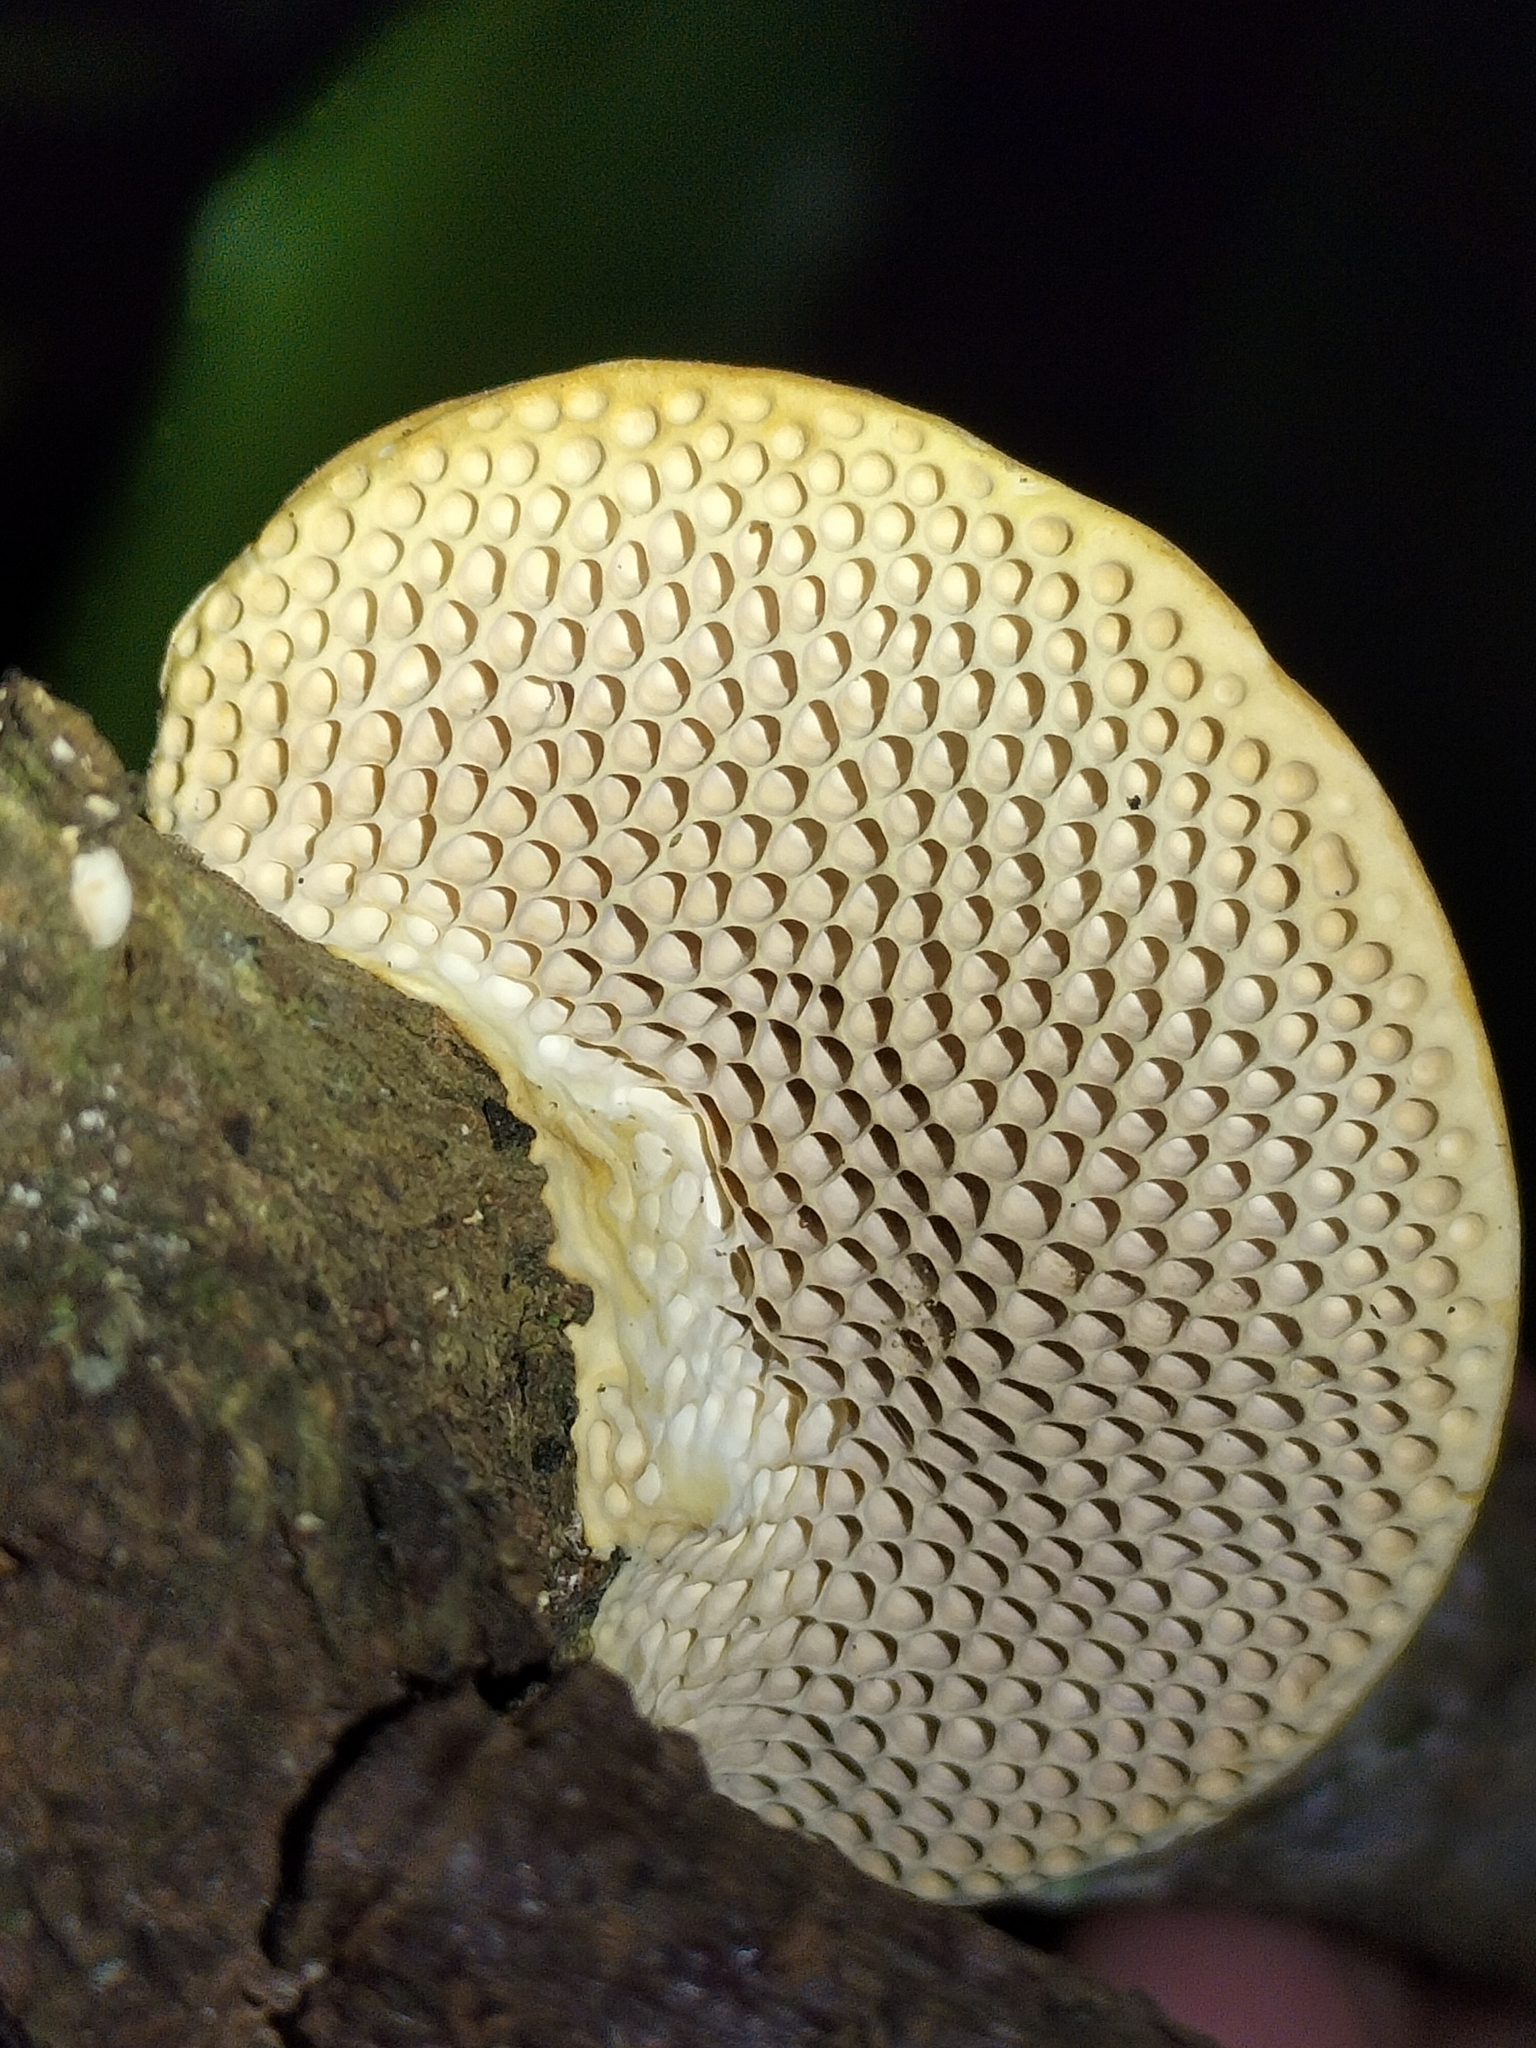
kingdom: Fungi
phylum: Basidiomycota
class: Agaricomycetes
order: Polyporales
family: Polyporaceae
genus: Pseudofavolus
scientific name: Pseudofavolus tenuis
